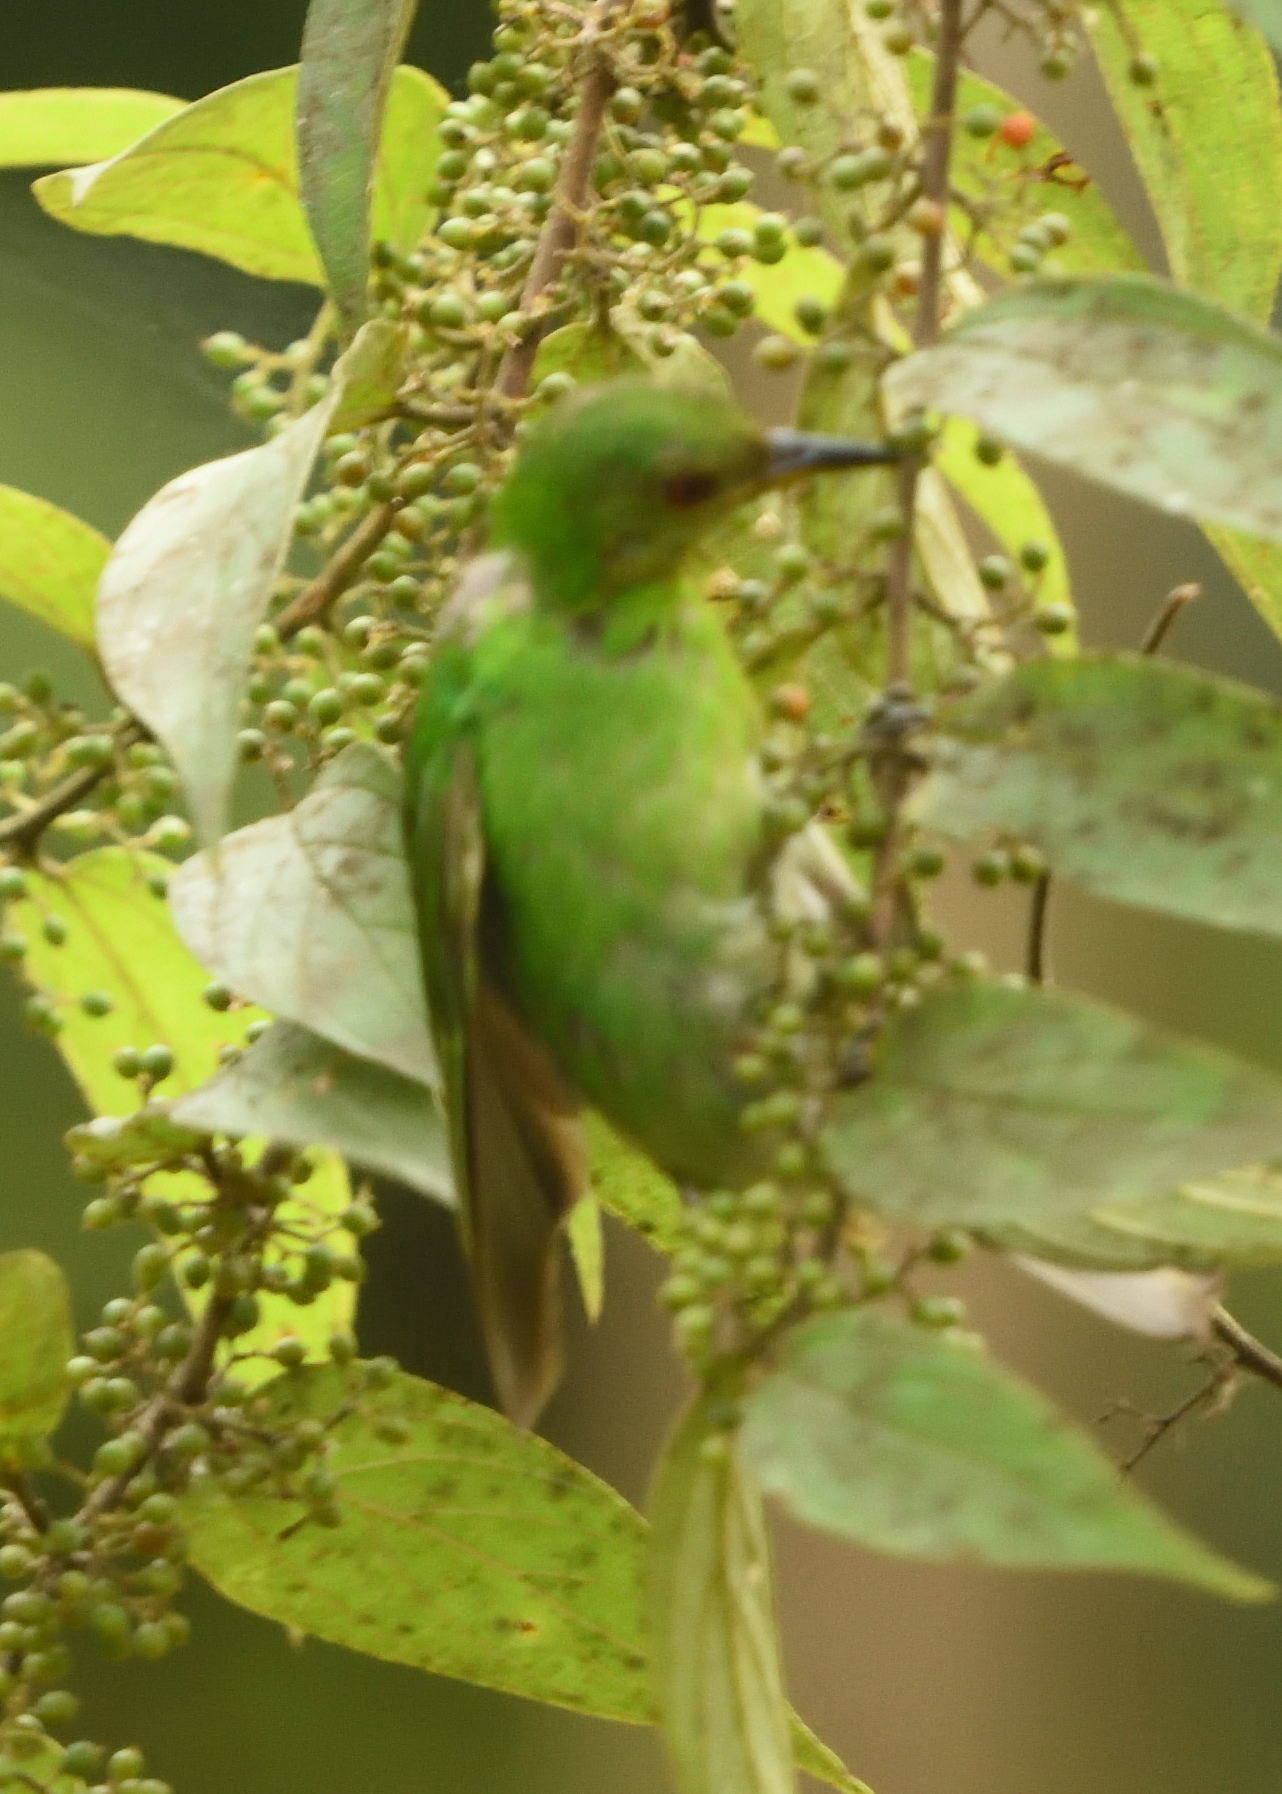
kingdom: Animalia
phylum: Chordata
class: Aves
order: Passeriformes
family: Thraupidae
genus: Chlorophanes
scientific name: Chlorophanes spiza
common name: Green honeycreeper
